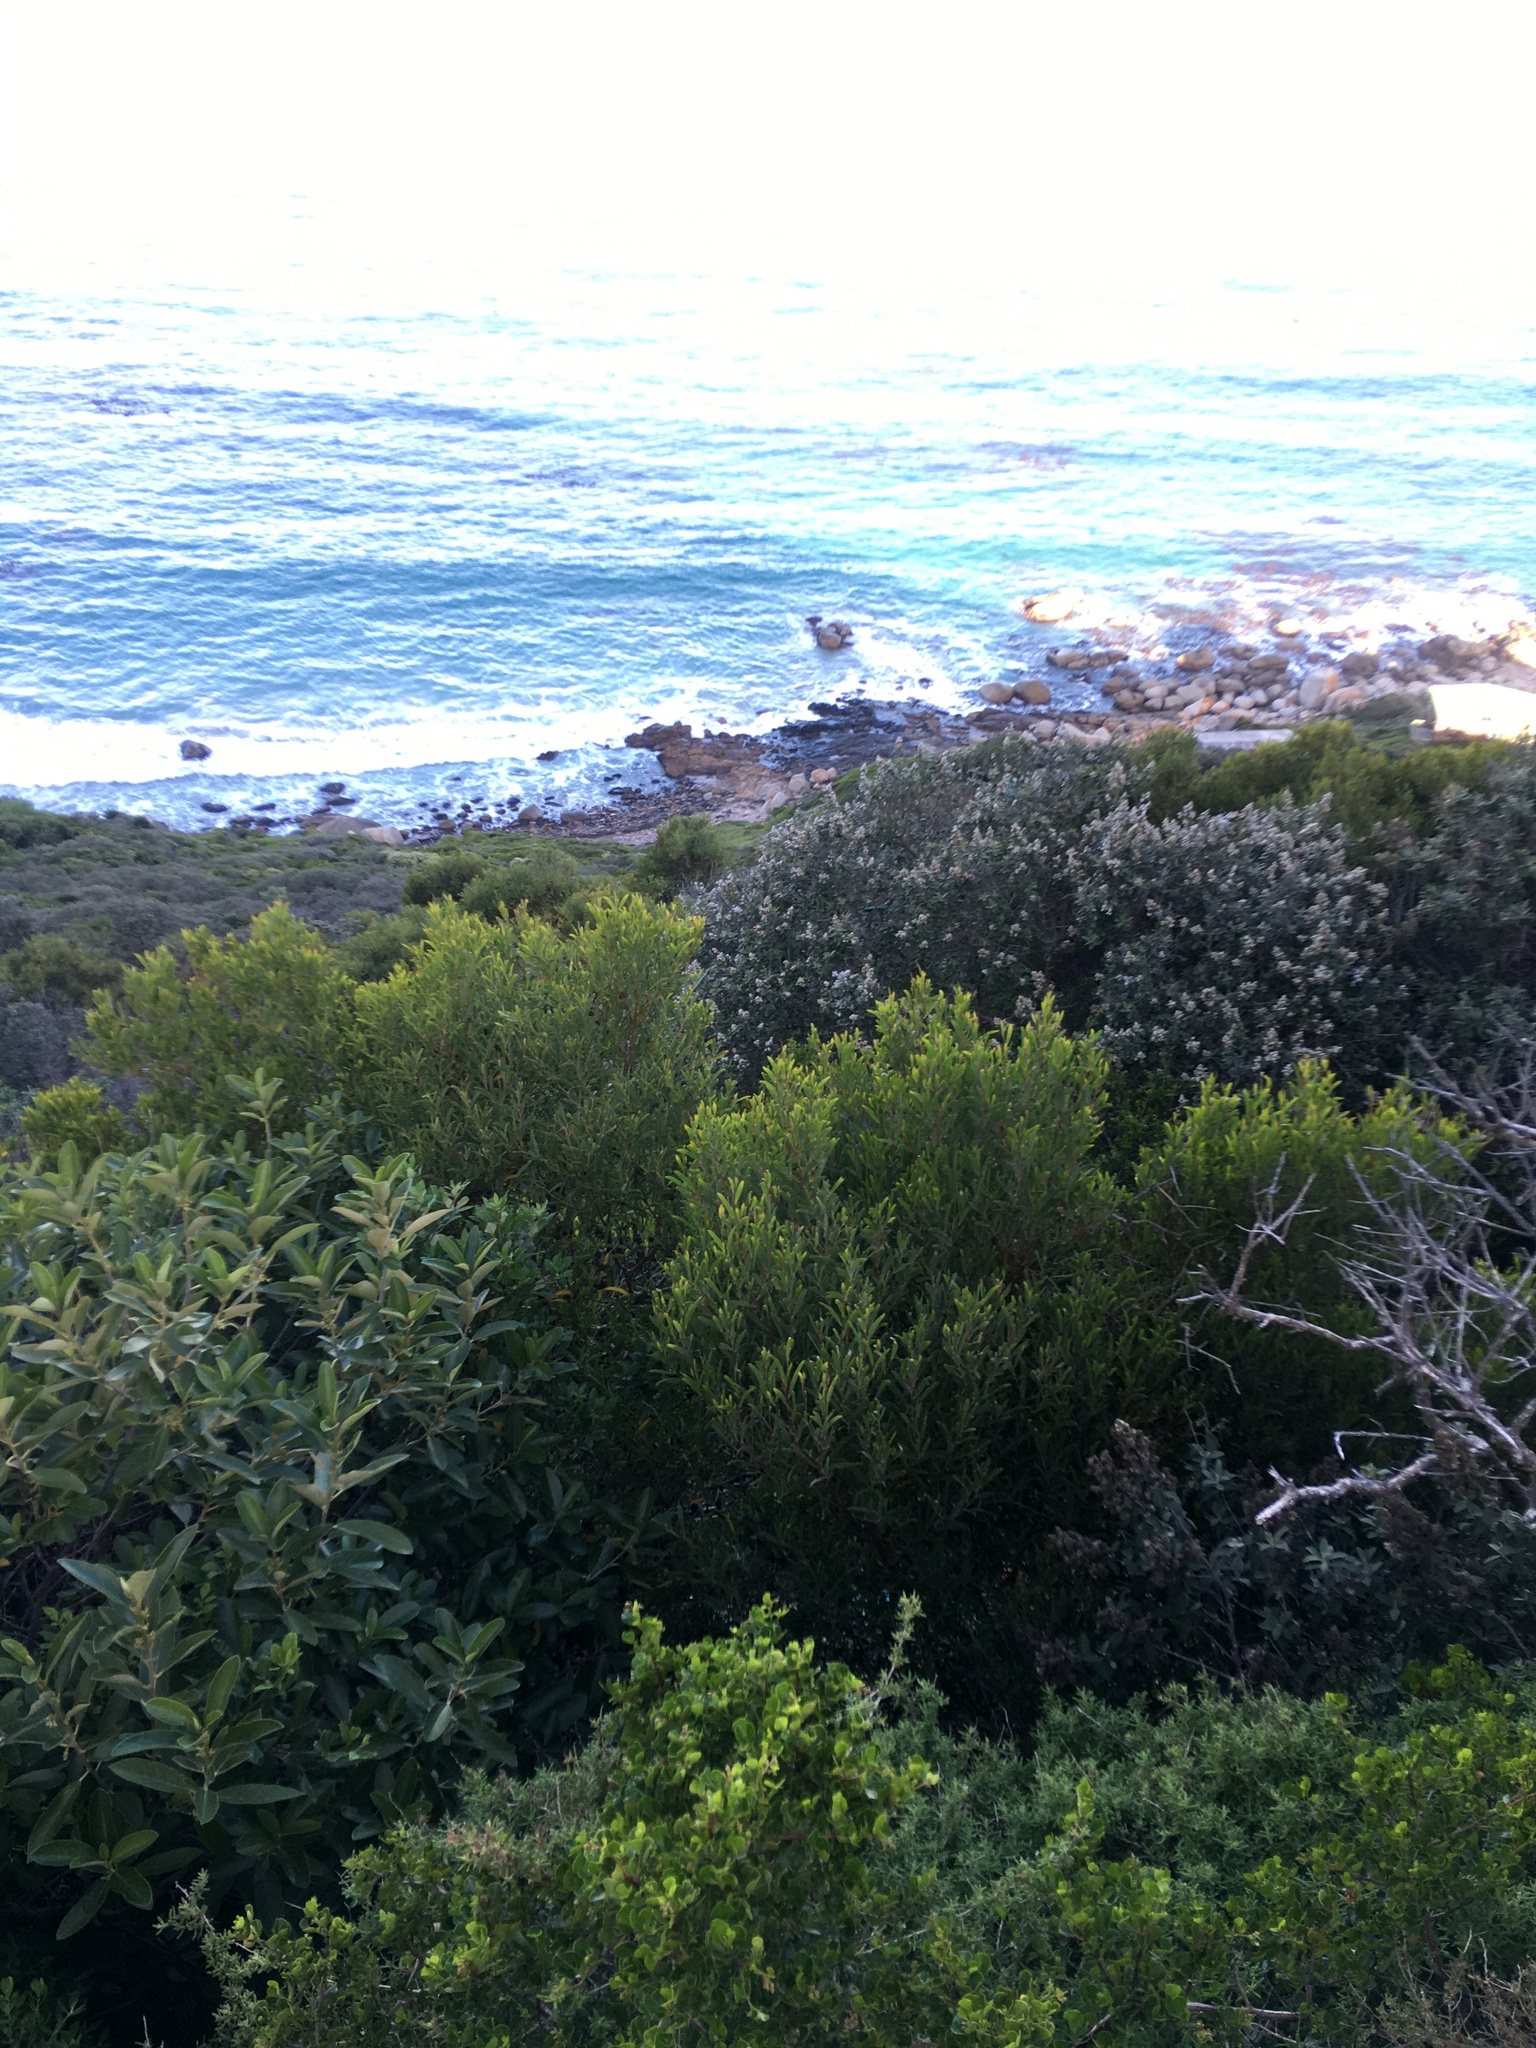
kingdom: Plantae
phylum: Tracheophyta
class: Magnoliopsida
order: Fabales
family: Fabaceae
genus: Acacia
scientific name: Acacia cyclops
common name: Coastal wattle
